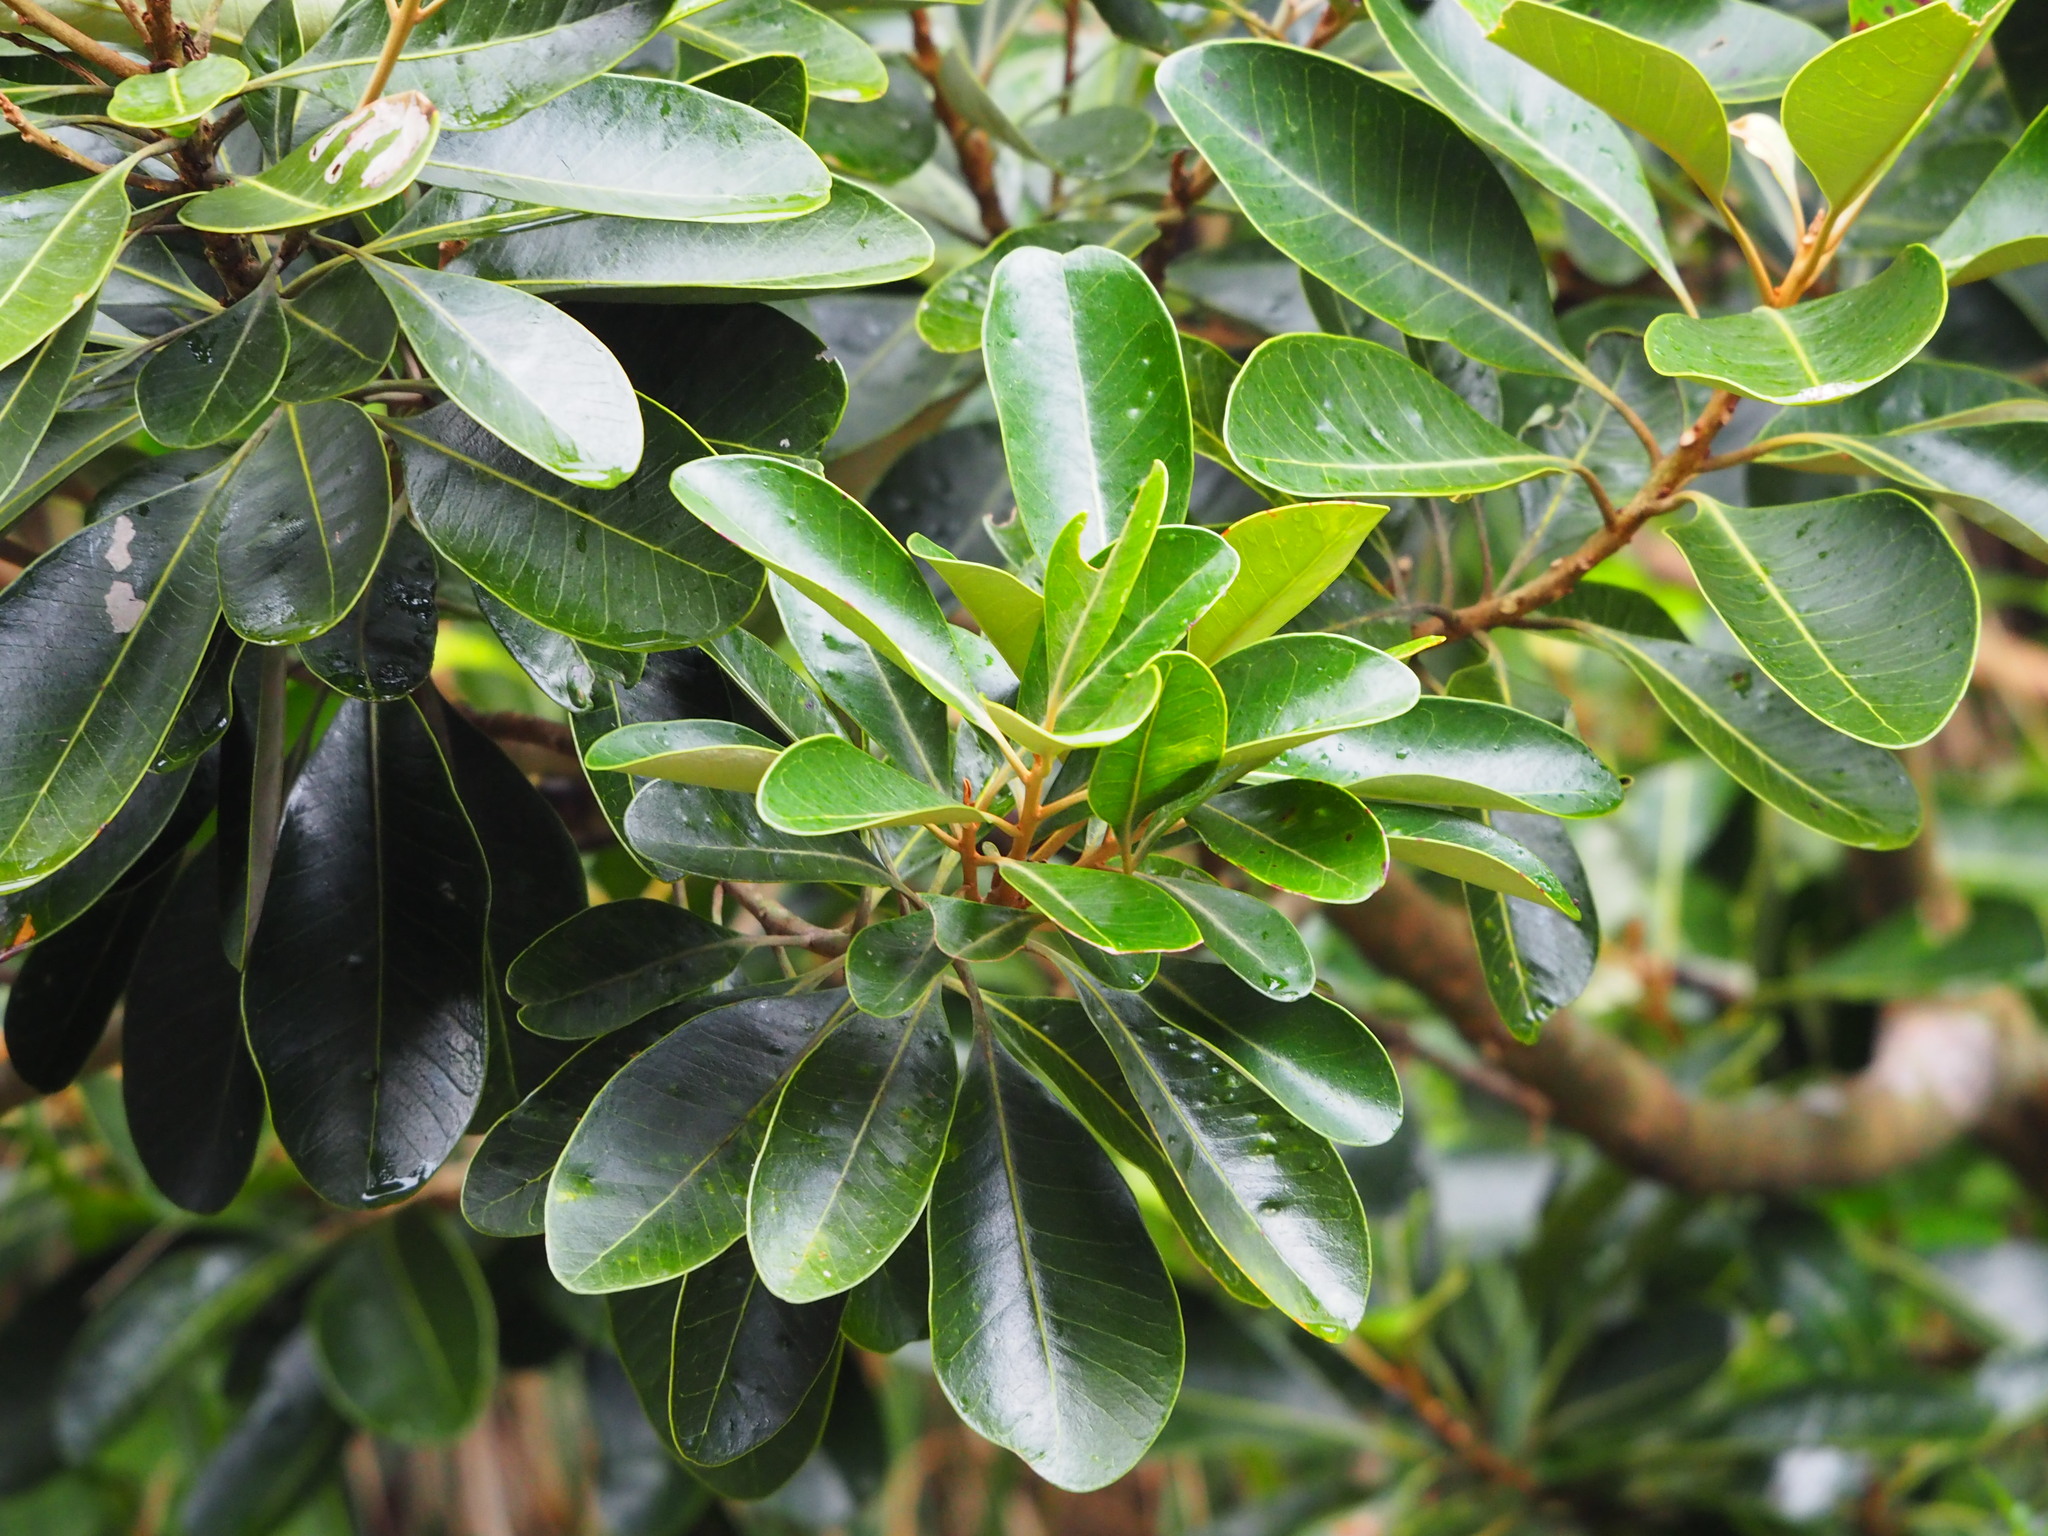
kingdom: Plantae
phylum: Tracheophyta
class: Magnoliopsida
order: Ericales
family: Sapotaceae
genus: Planchonella
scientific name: Planchonella obovata
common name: Black-ash
